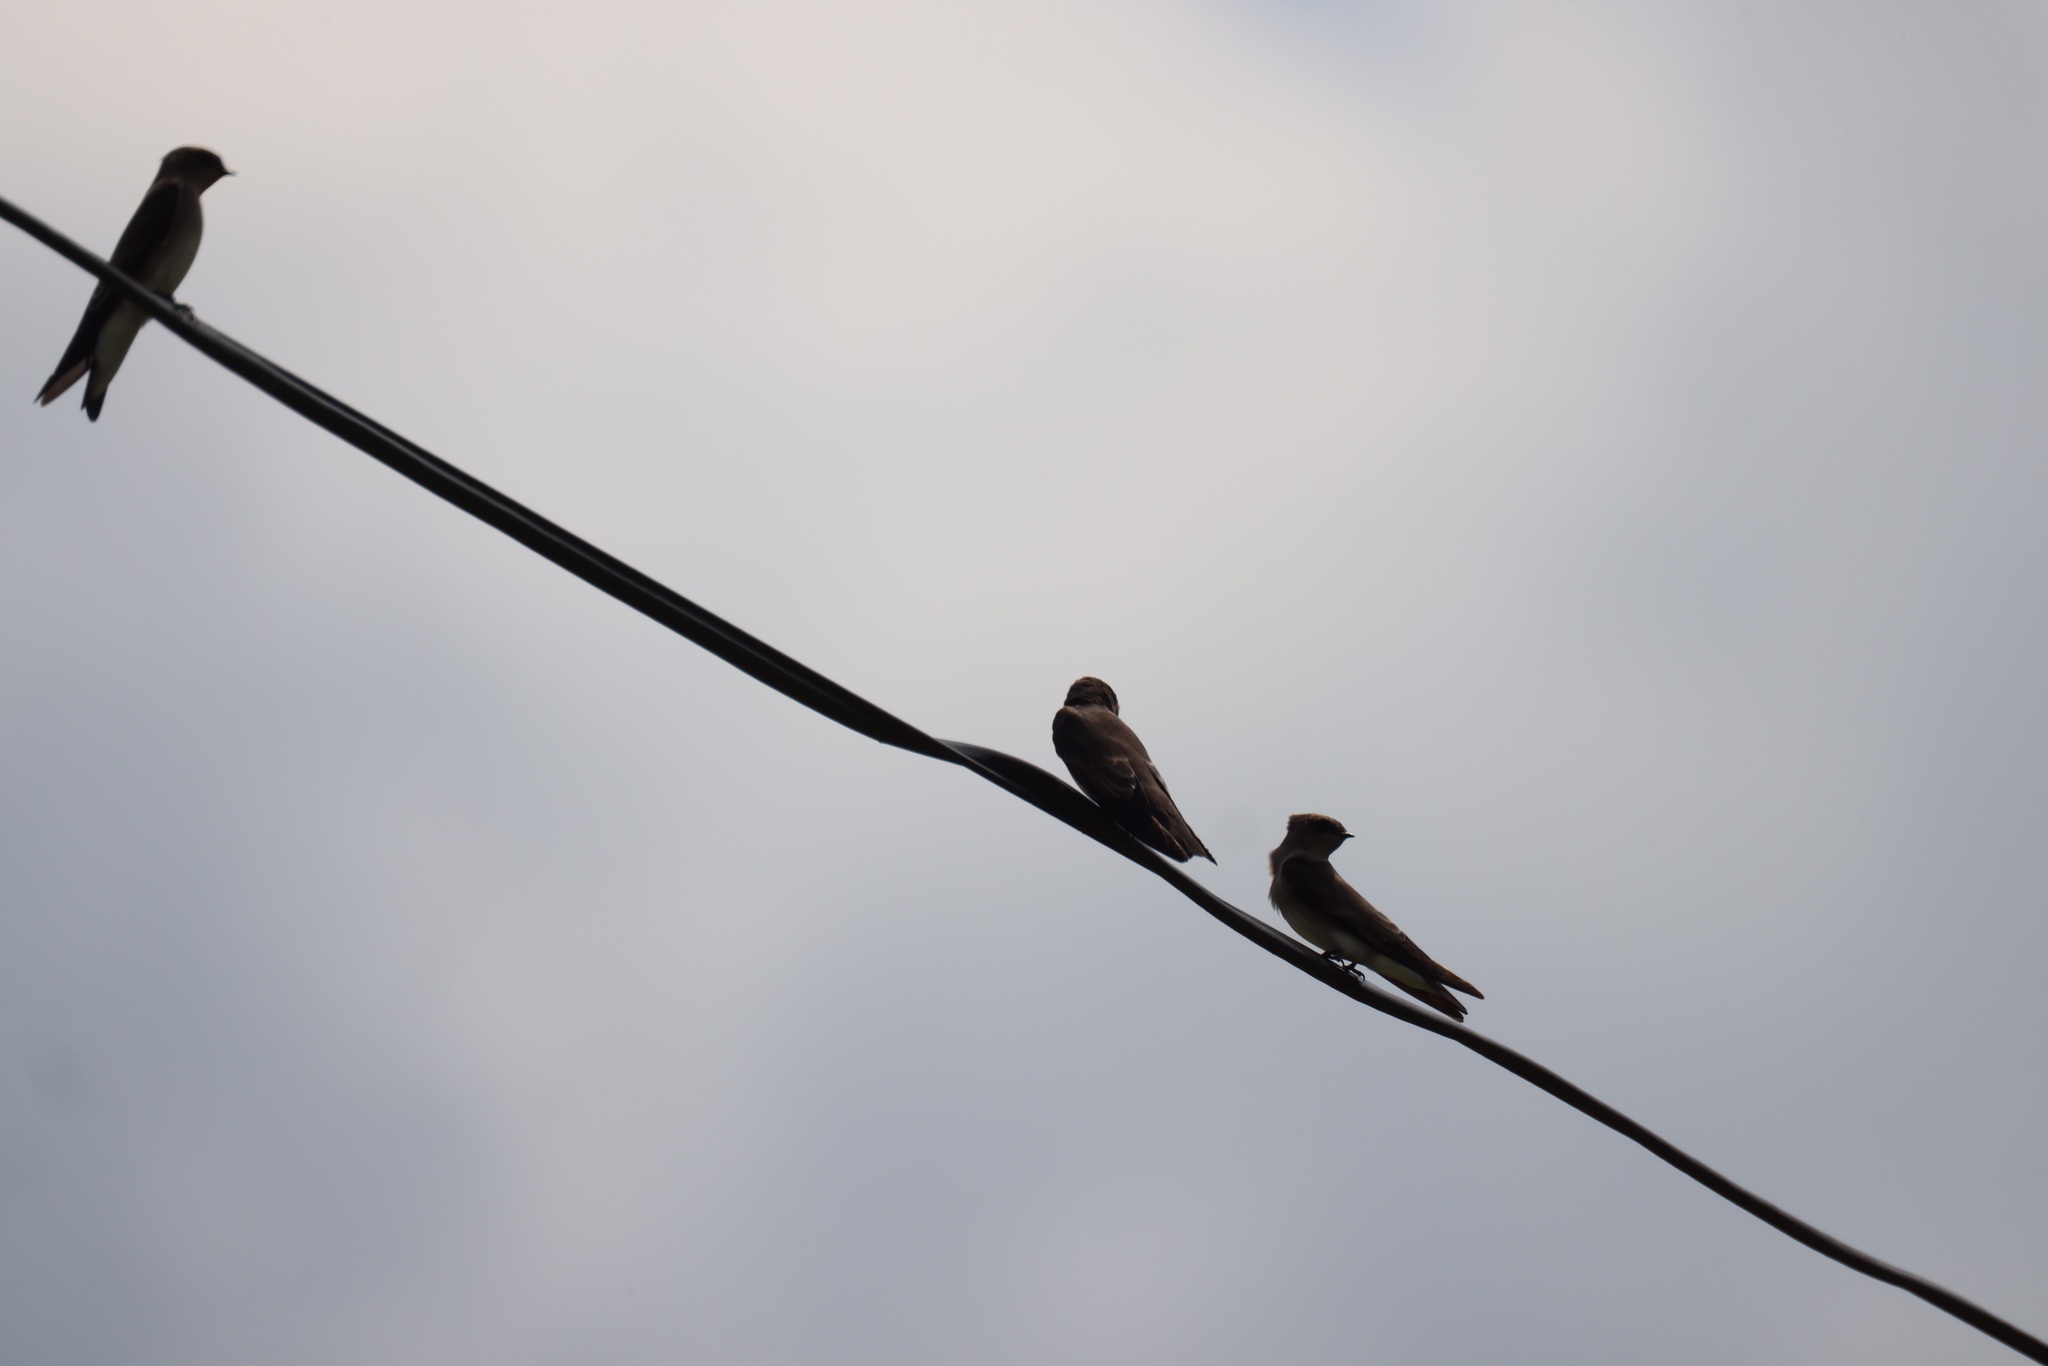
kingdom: Animalia
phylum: Chordata
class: Aves
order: Passeriformes
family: Hirundinidae
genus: Stelgidopteryx
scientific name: Stelgidopteryx serripennis
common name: Northern rough-winged swallow
